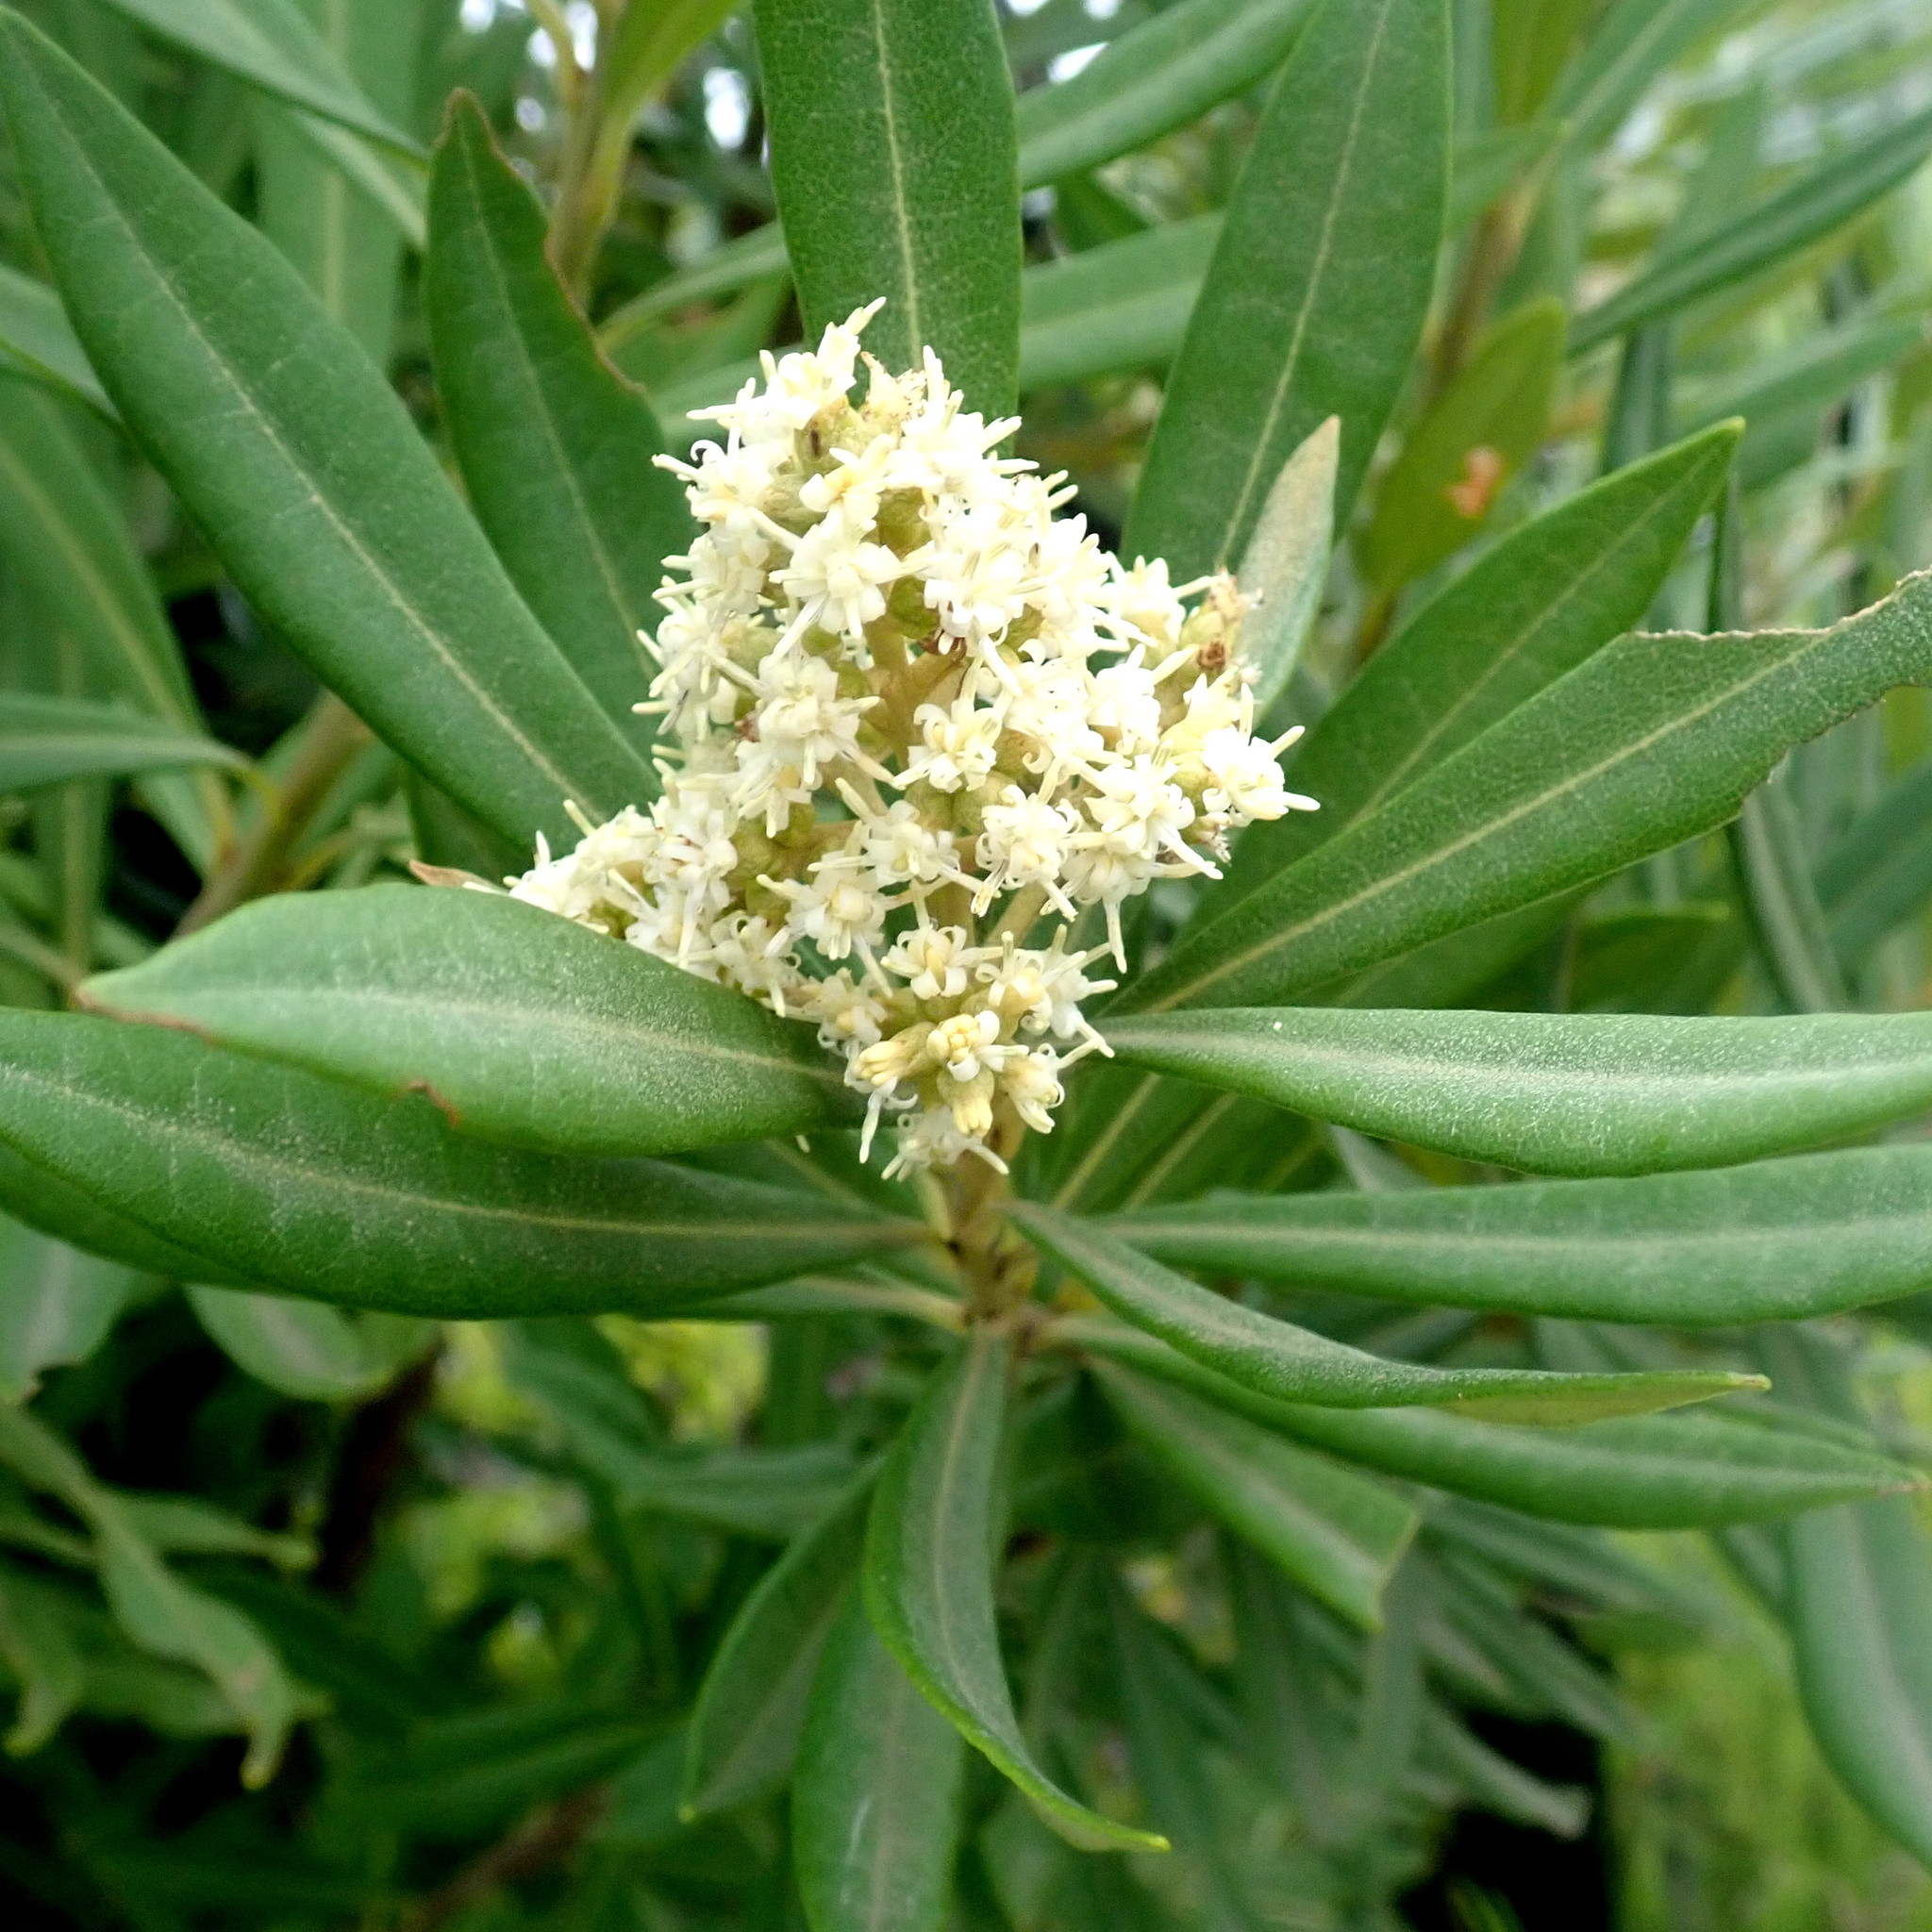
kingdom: Plantae
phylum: Tracheophyta
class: Magnoliopsida
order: Asterales
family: Asteraceae
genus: Brachylaena
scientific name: Brachylaena neriifolia
